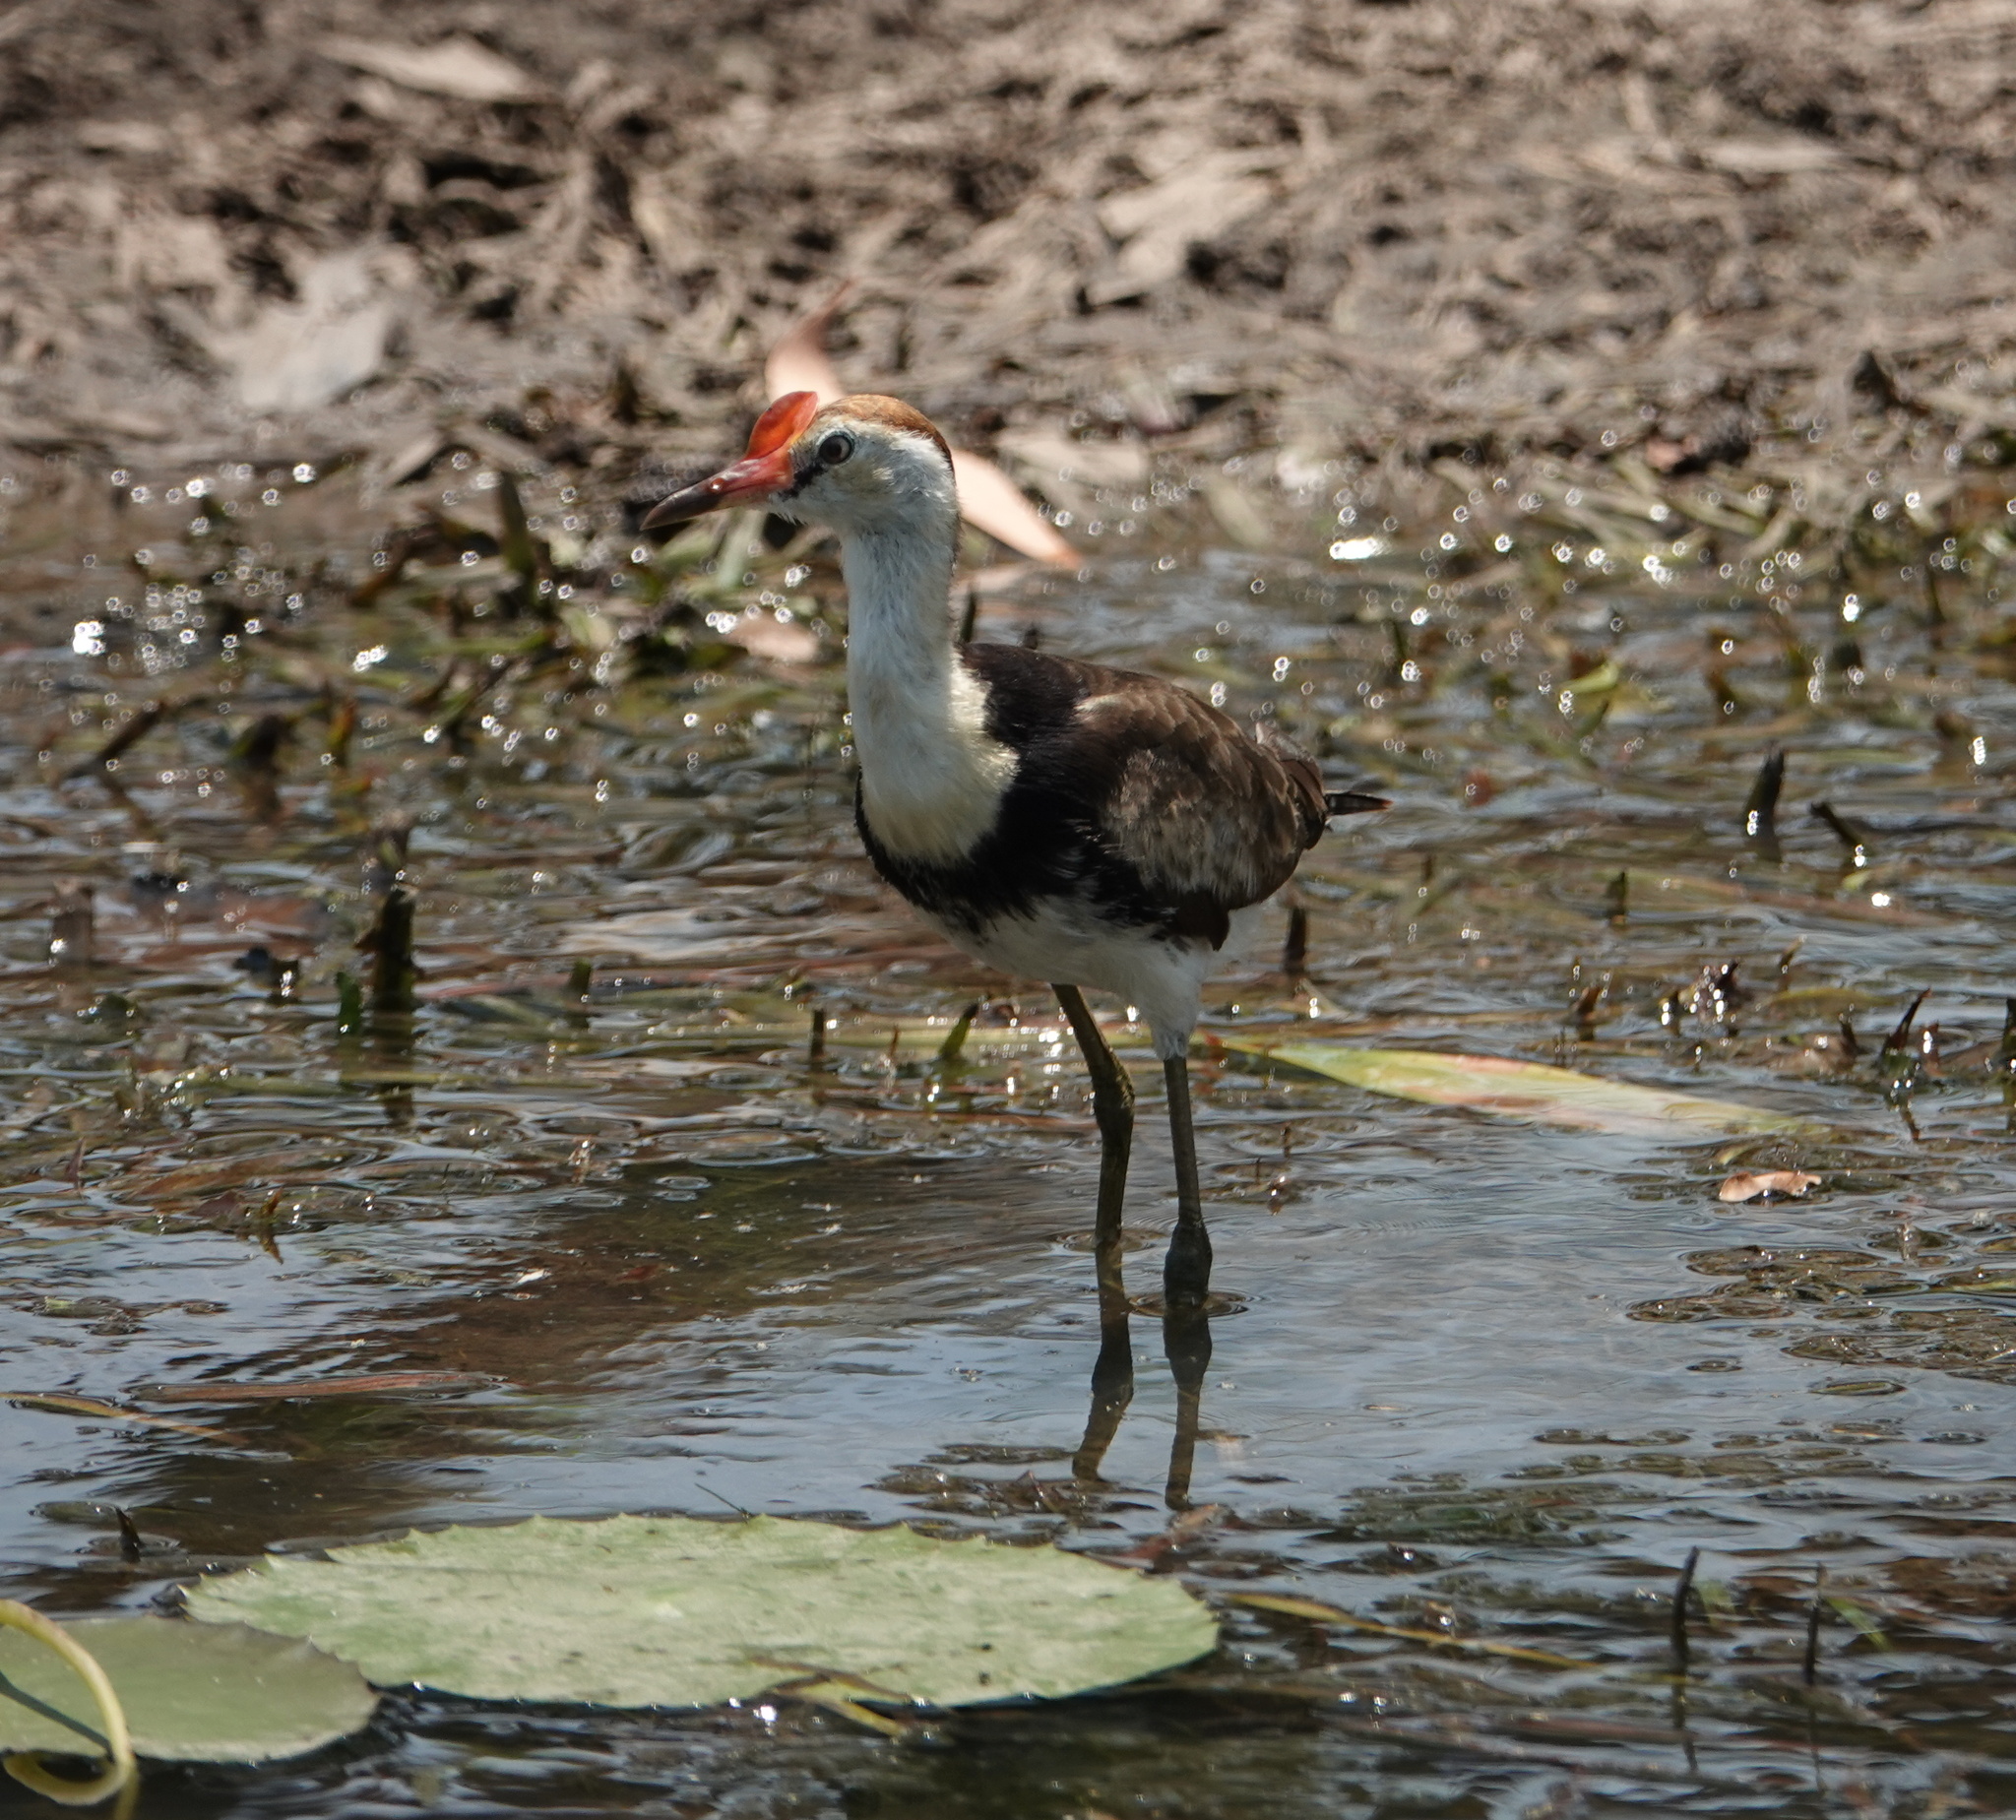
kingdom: Animalia
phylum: Chordata
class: Aves
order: Charadriiformes
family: Jacanidae
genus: Irediparra
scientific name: Irediparra gallinacea
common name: Comb-crested jacana
